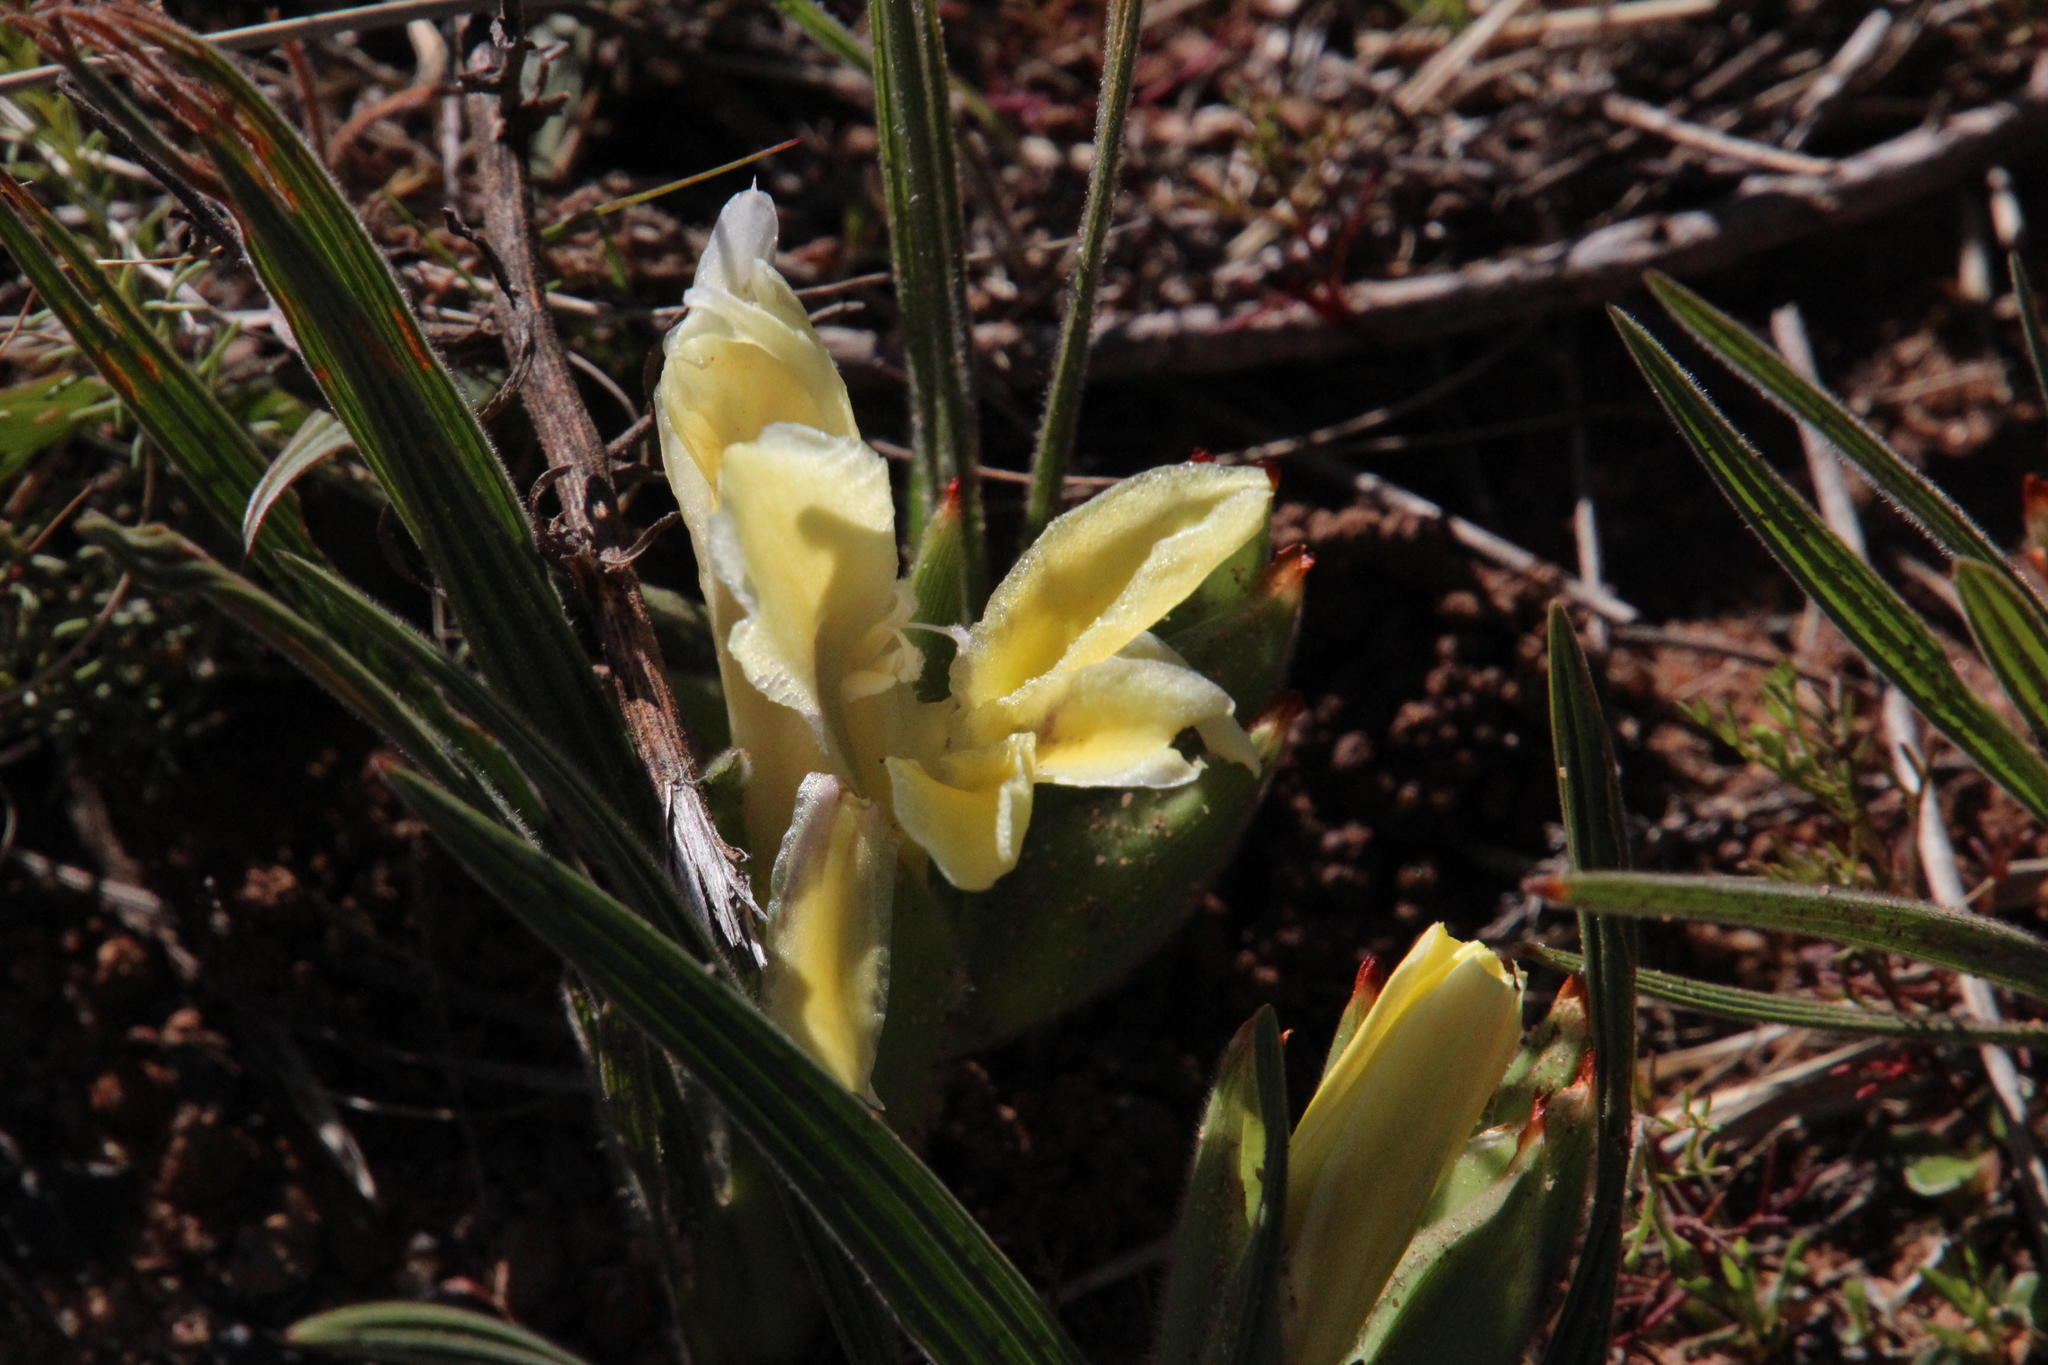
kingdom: Plantae
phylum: Tracheophyta
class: Liliopsida
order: Asparagales
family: Iridaceae
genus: Babiana
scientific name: Babiana vanzijliae
